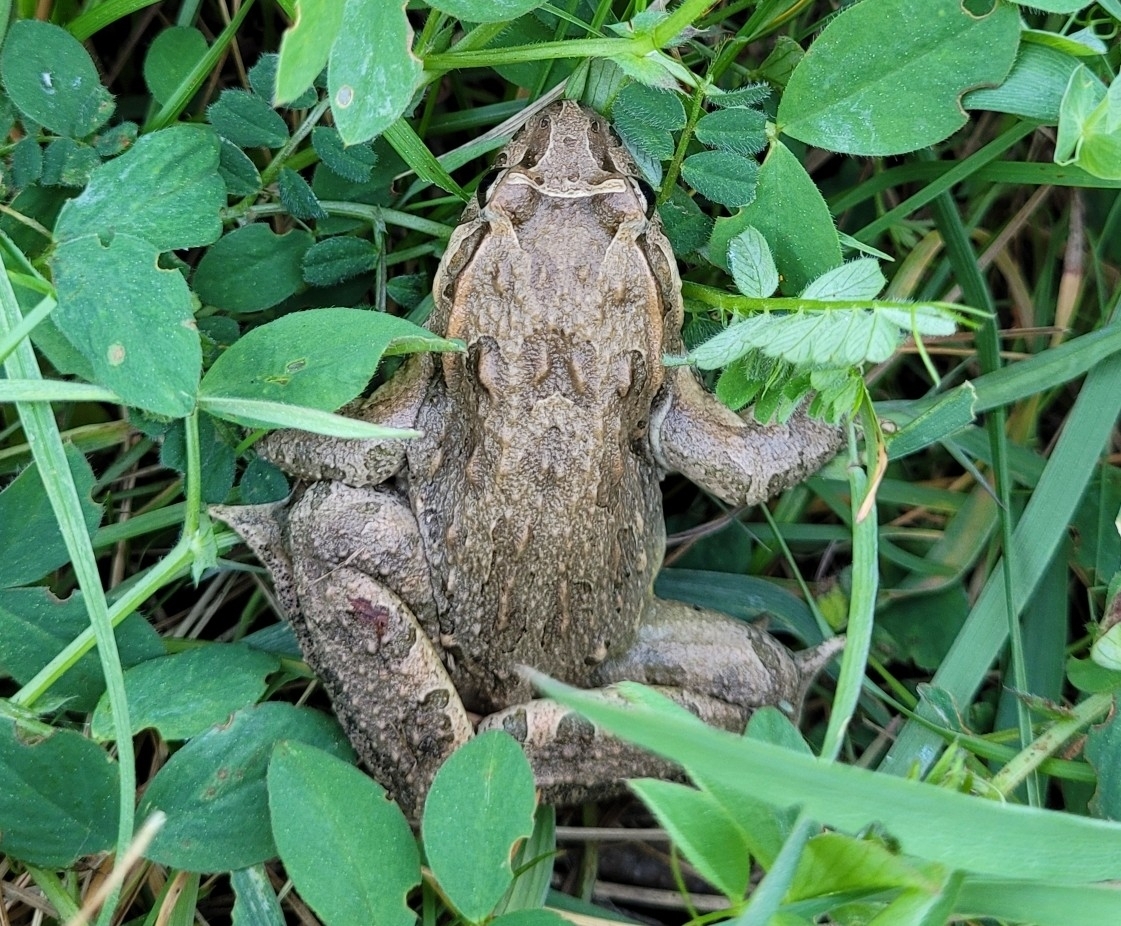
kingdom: Animalia
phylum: Chordata
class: Amphibia
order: Anura
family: Alytidae
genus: Discoglossus
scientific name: Discoglossus pictus
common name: Painted frog
